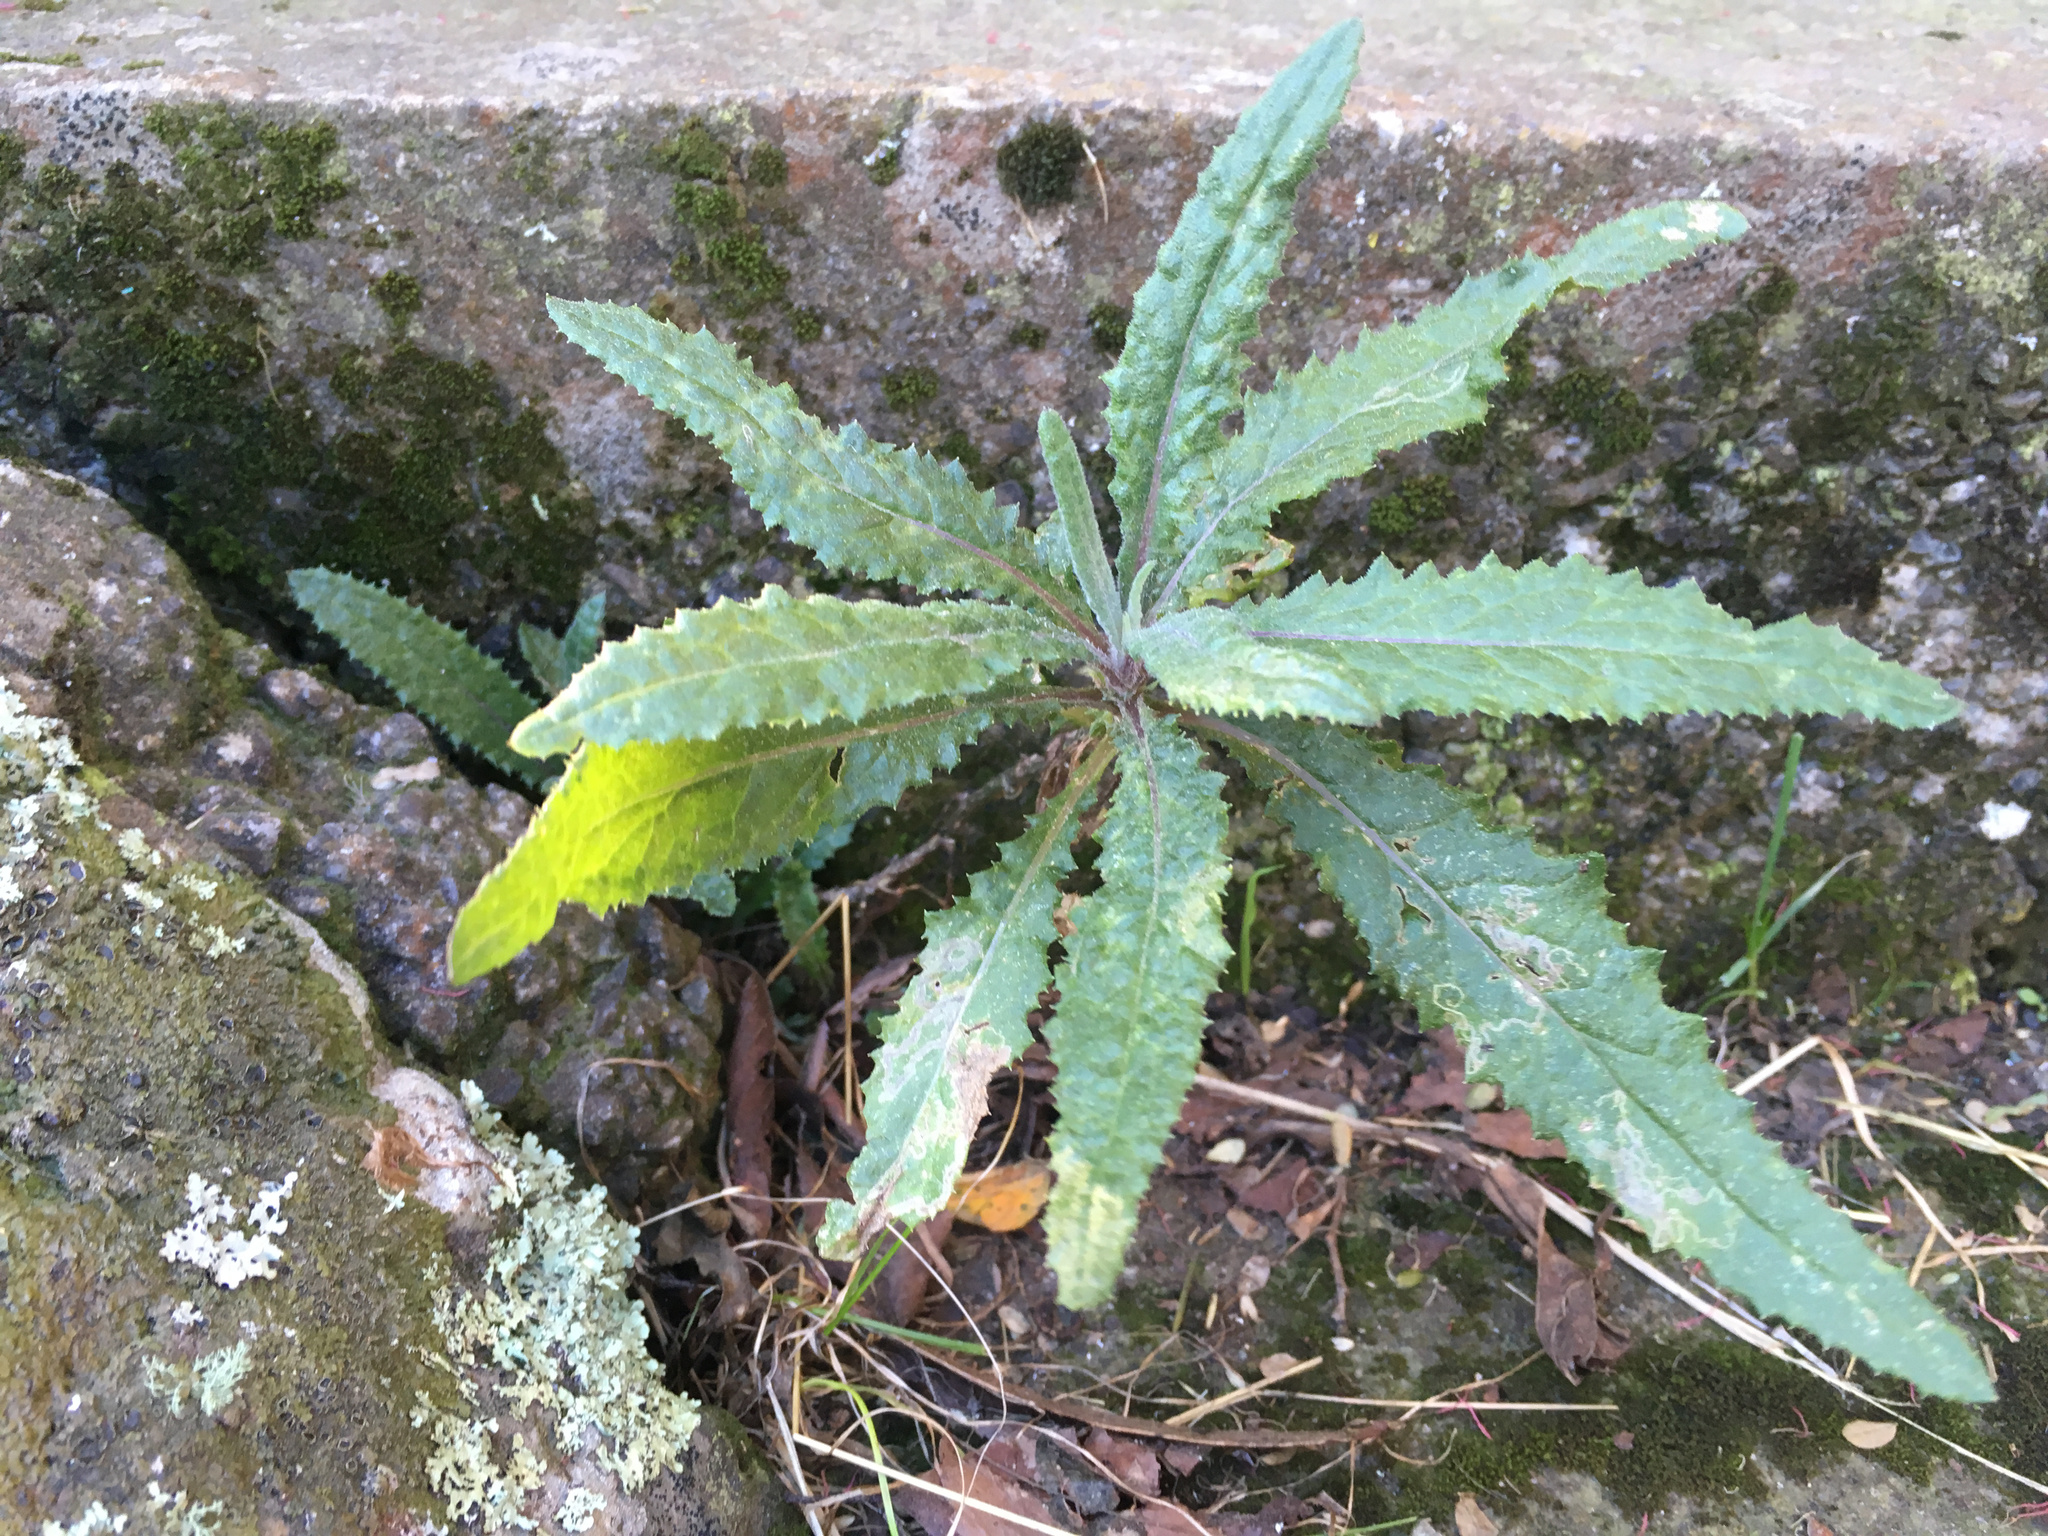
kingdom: Plantae
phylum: Tracheophyta
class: Magnoliopsida
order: Asterales
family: Asteraceae
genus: Senecio
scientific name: Senecio minimus
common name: Toothed fireweed
